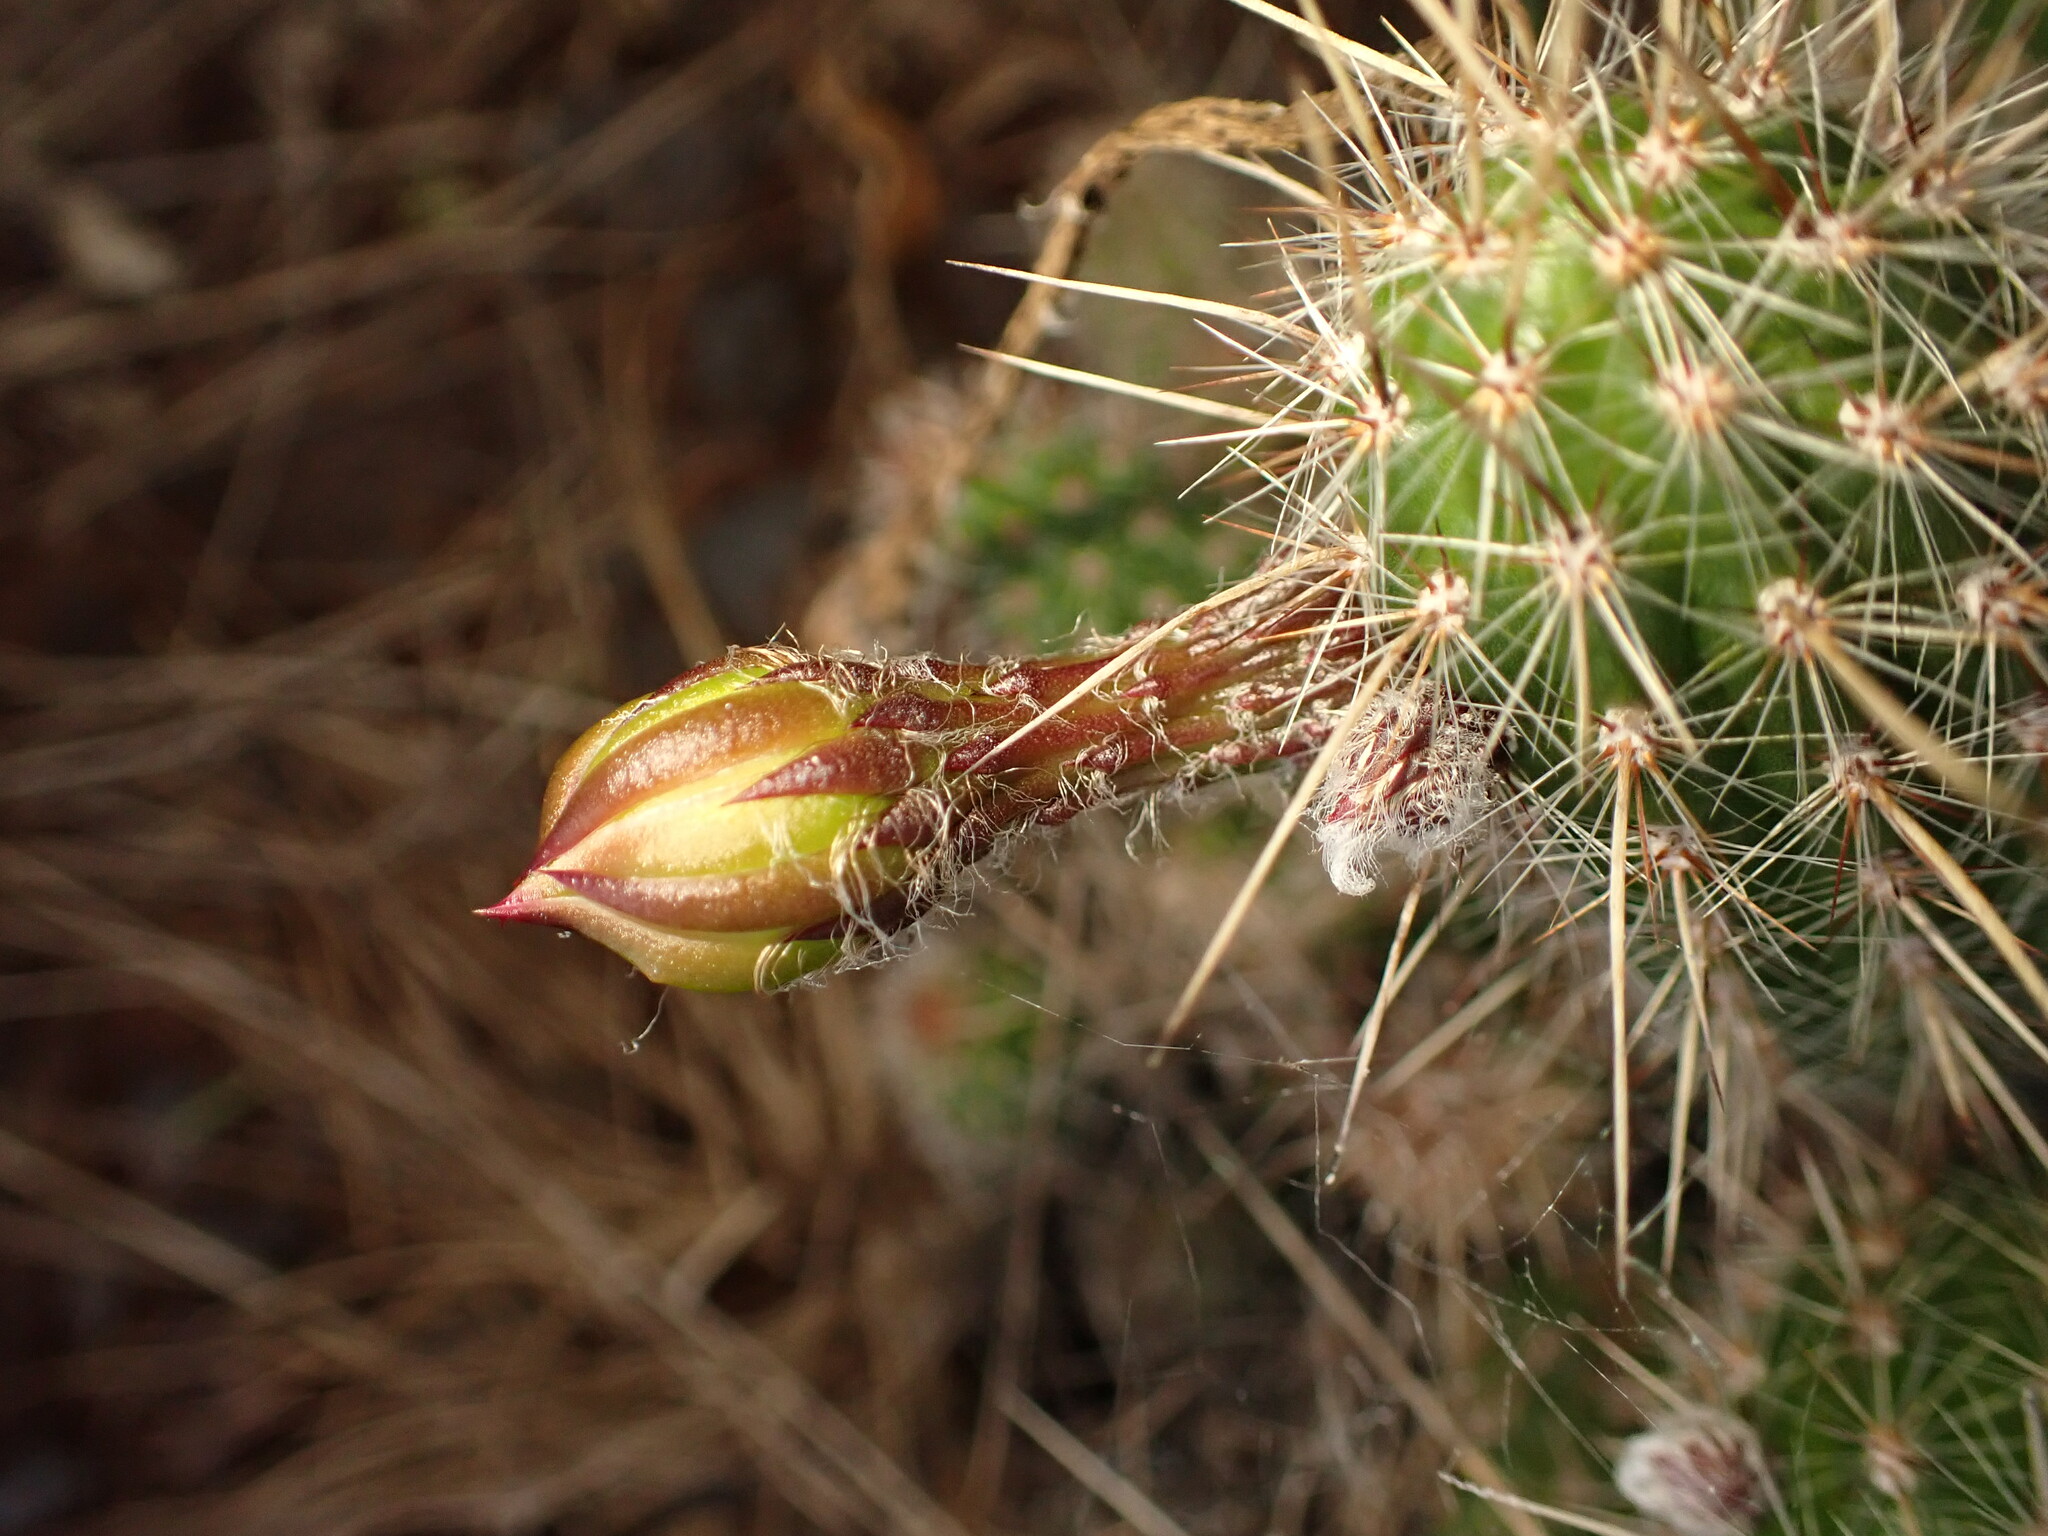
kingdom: Plantae
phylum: Tracheophyta
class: Magnoliopsida
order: Caryophyllales
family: Cactaceae
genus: Arthrocereus
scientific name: Arthrocereus glaziovii
